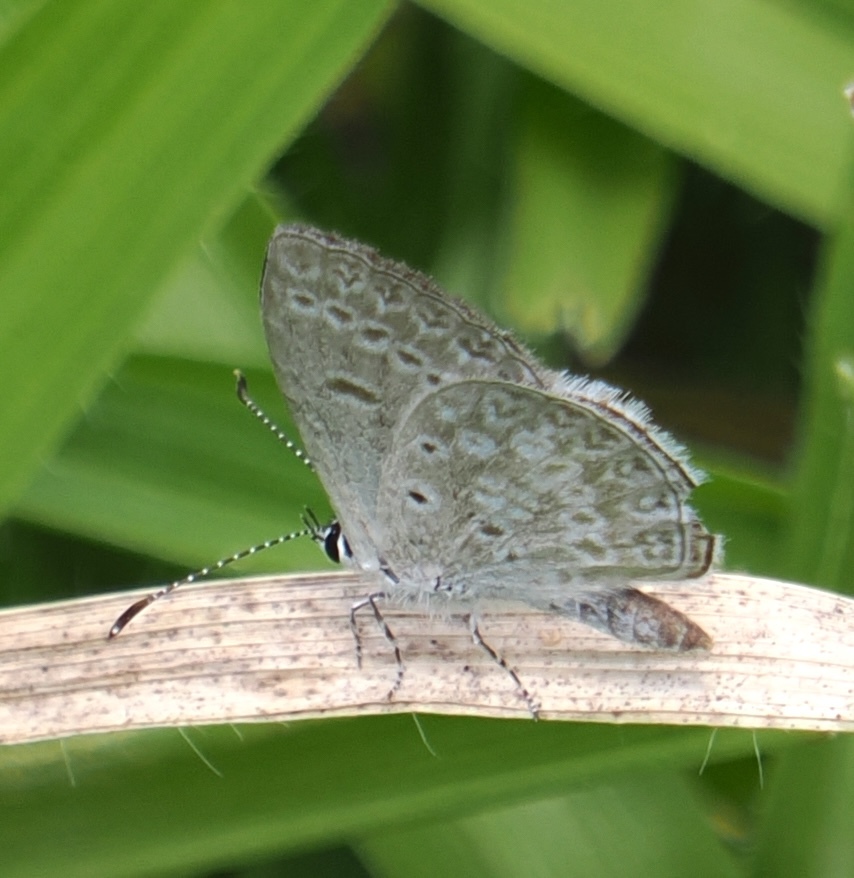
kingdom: Animalia
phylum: Arthropoda
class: Insecta
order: Lepidoptera
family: Lycaenidae
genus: Elkalyce
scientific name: Elkalyce cogina
